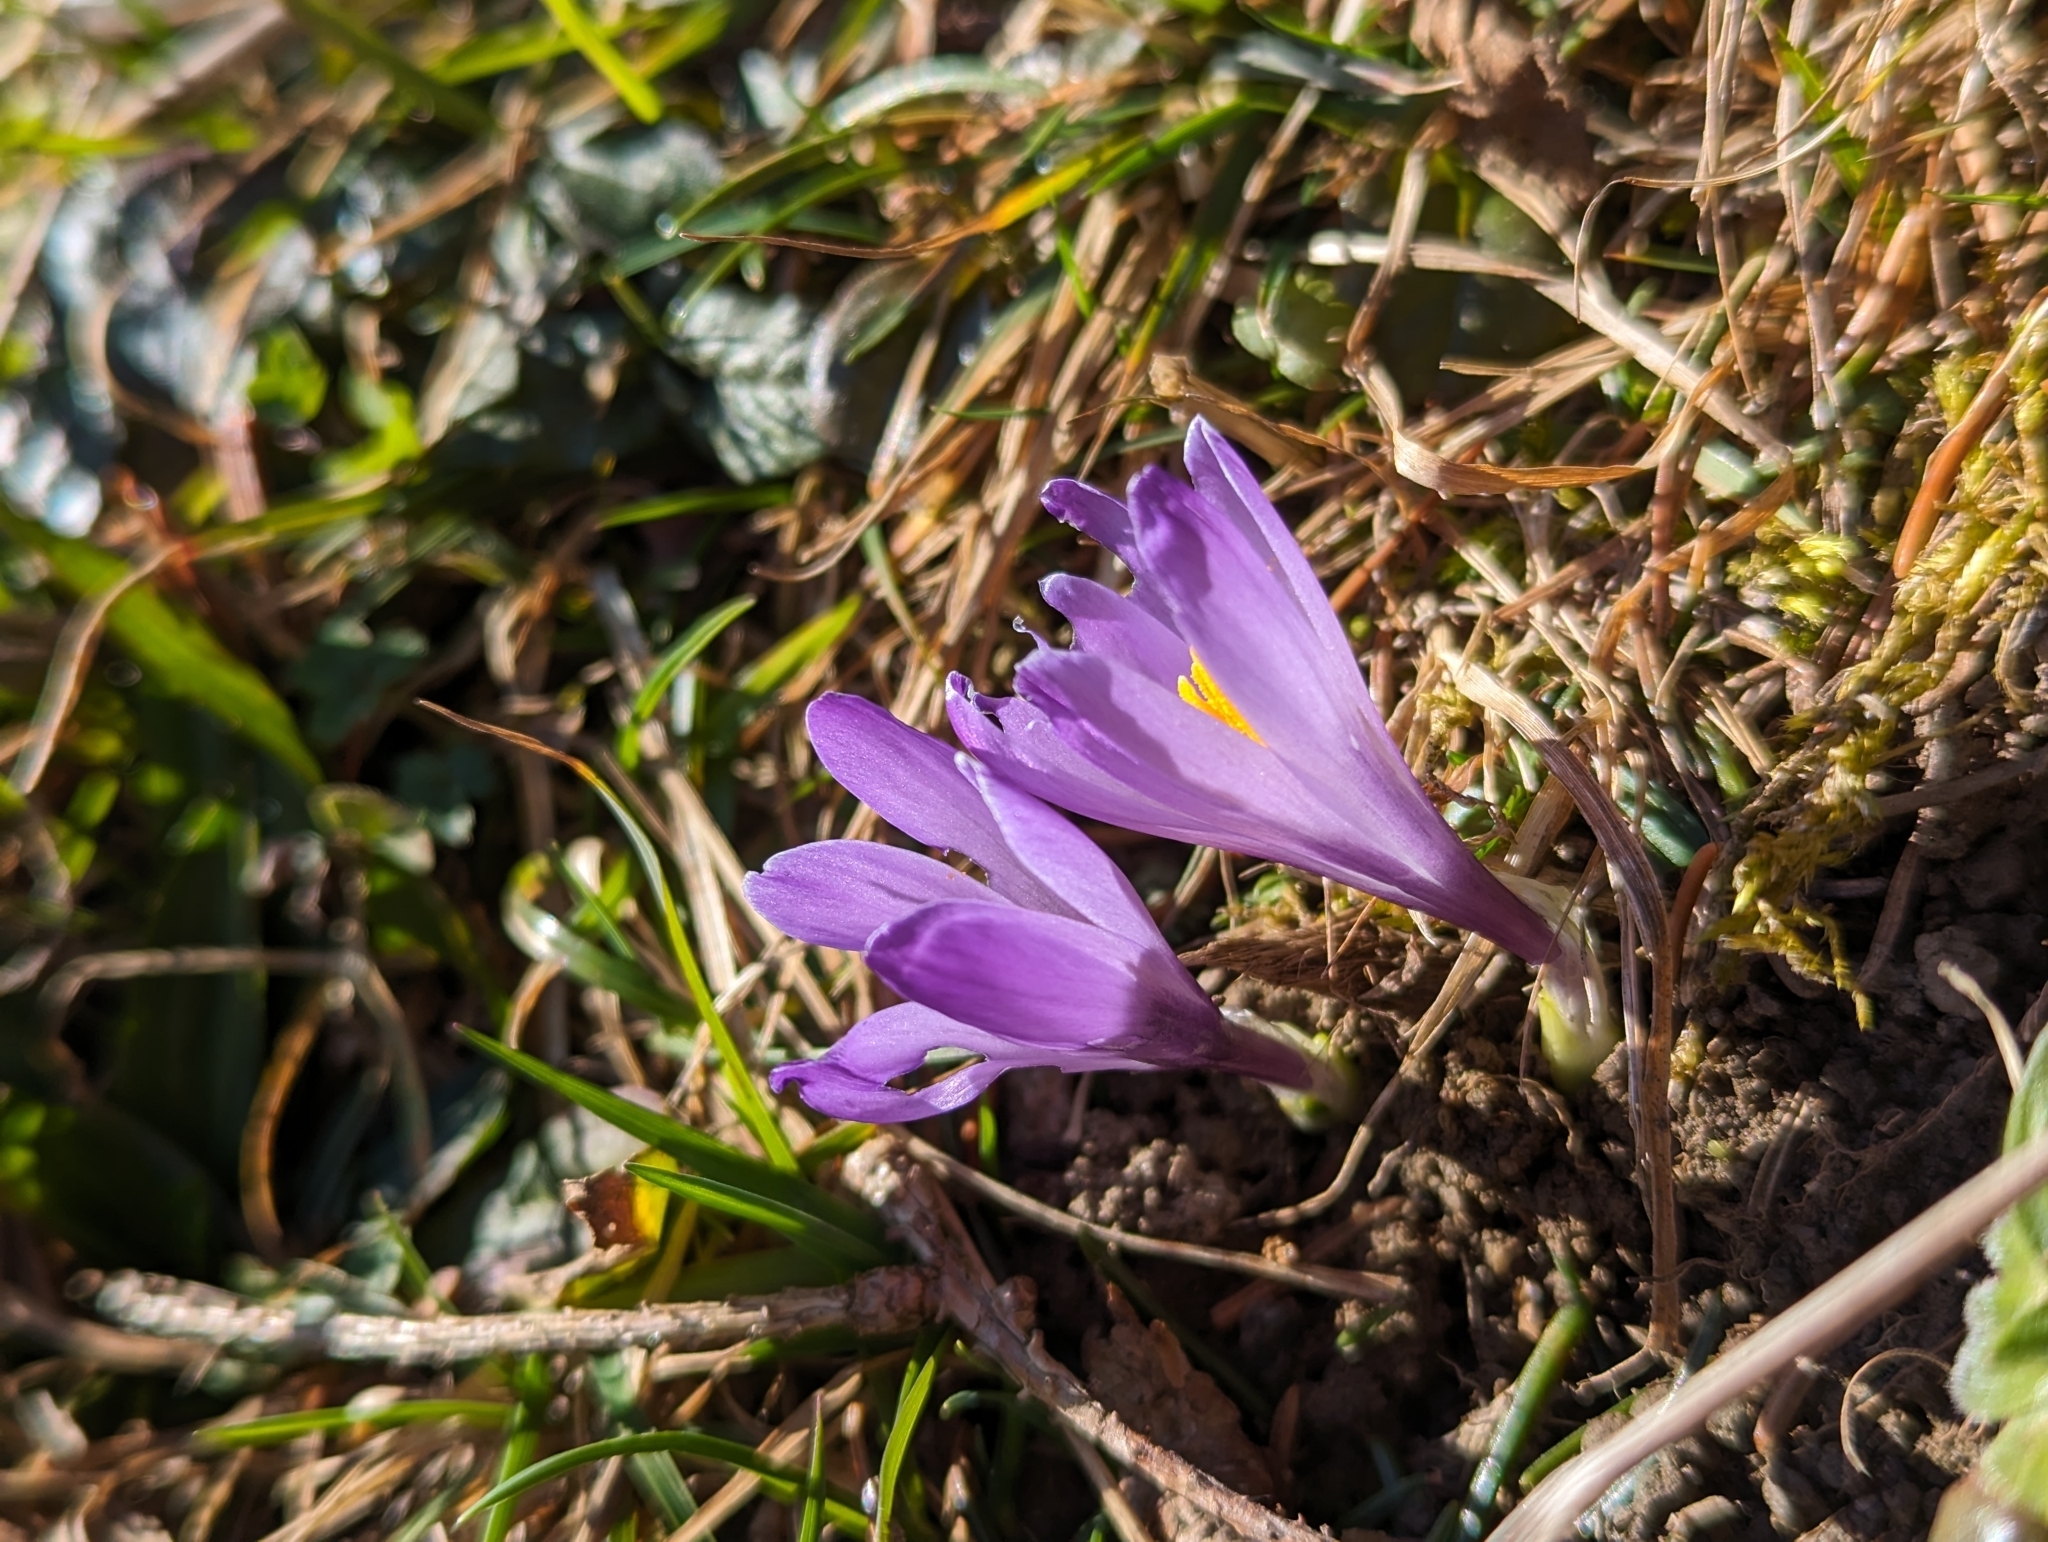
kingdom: Plantae
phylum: Tracheophyta
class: Liliopsida
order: Asparagales
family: Iridaceae
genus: Crocus
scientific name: Crocus vernus
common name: Spring crocus
